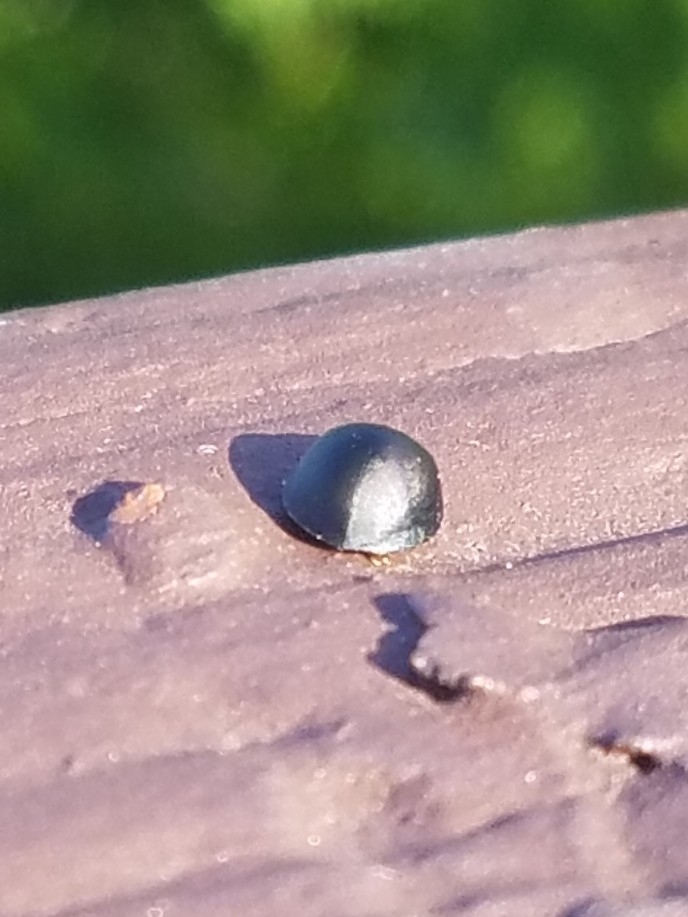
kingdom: Animalia
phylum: Arthropoda
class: Insecta
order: Coleoptera
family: Coccinellidae
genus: Egius
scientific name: Egius platycephalus
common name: Ladybird beetle
